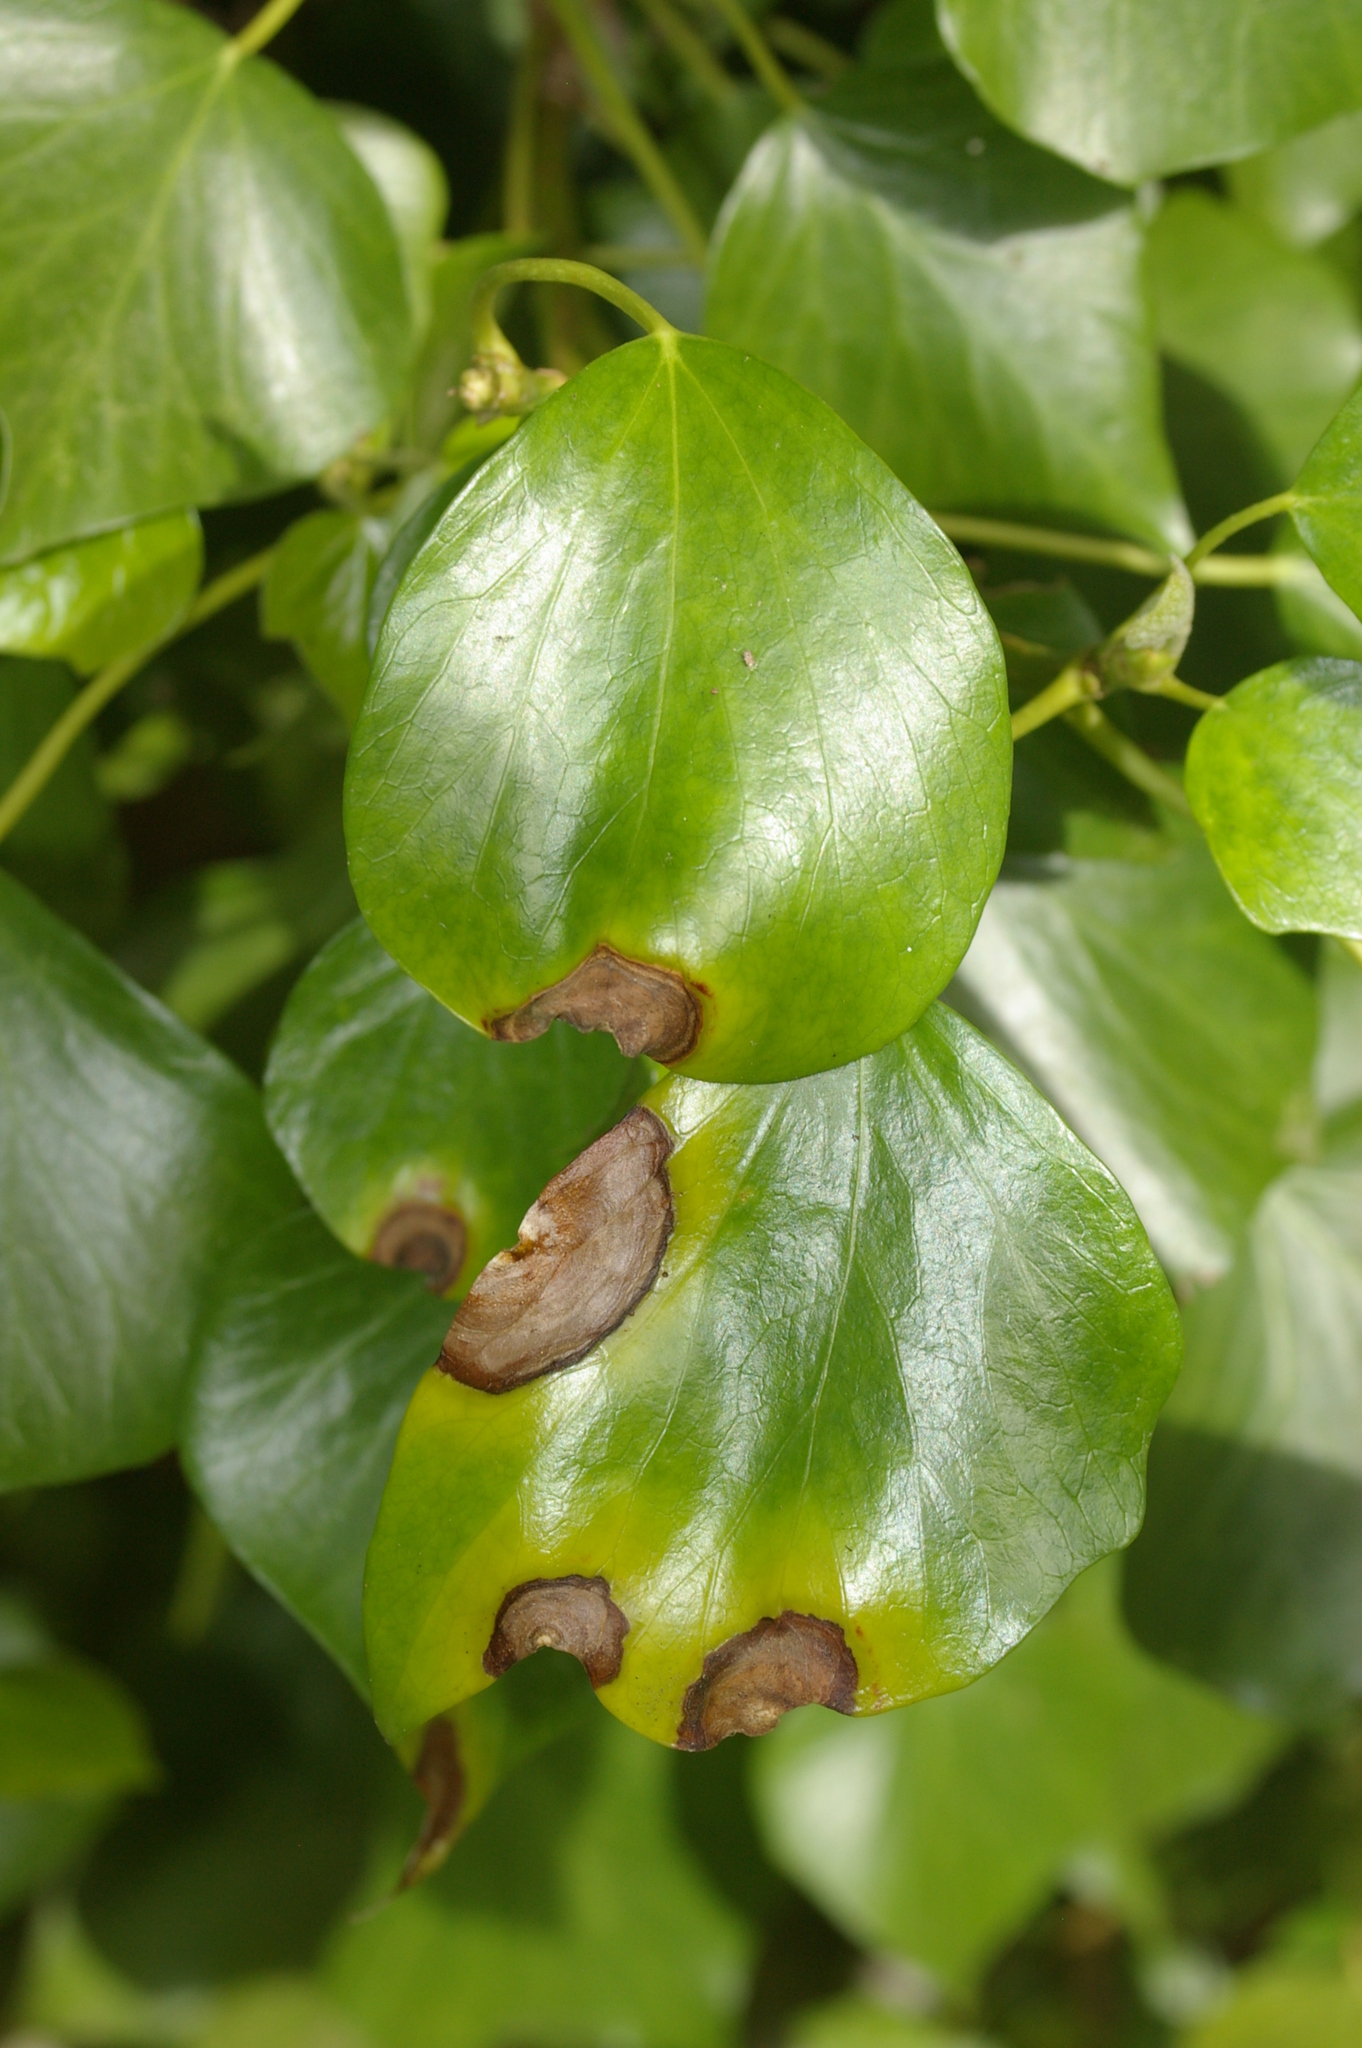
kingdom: Plantae
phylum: Tracheophyta
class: Magnoliopsida
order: Apiales
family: Araliaceae
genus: Hedera
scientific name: Hedera helix
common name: Ivy
